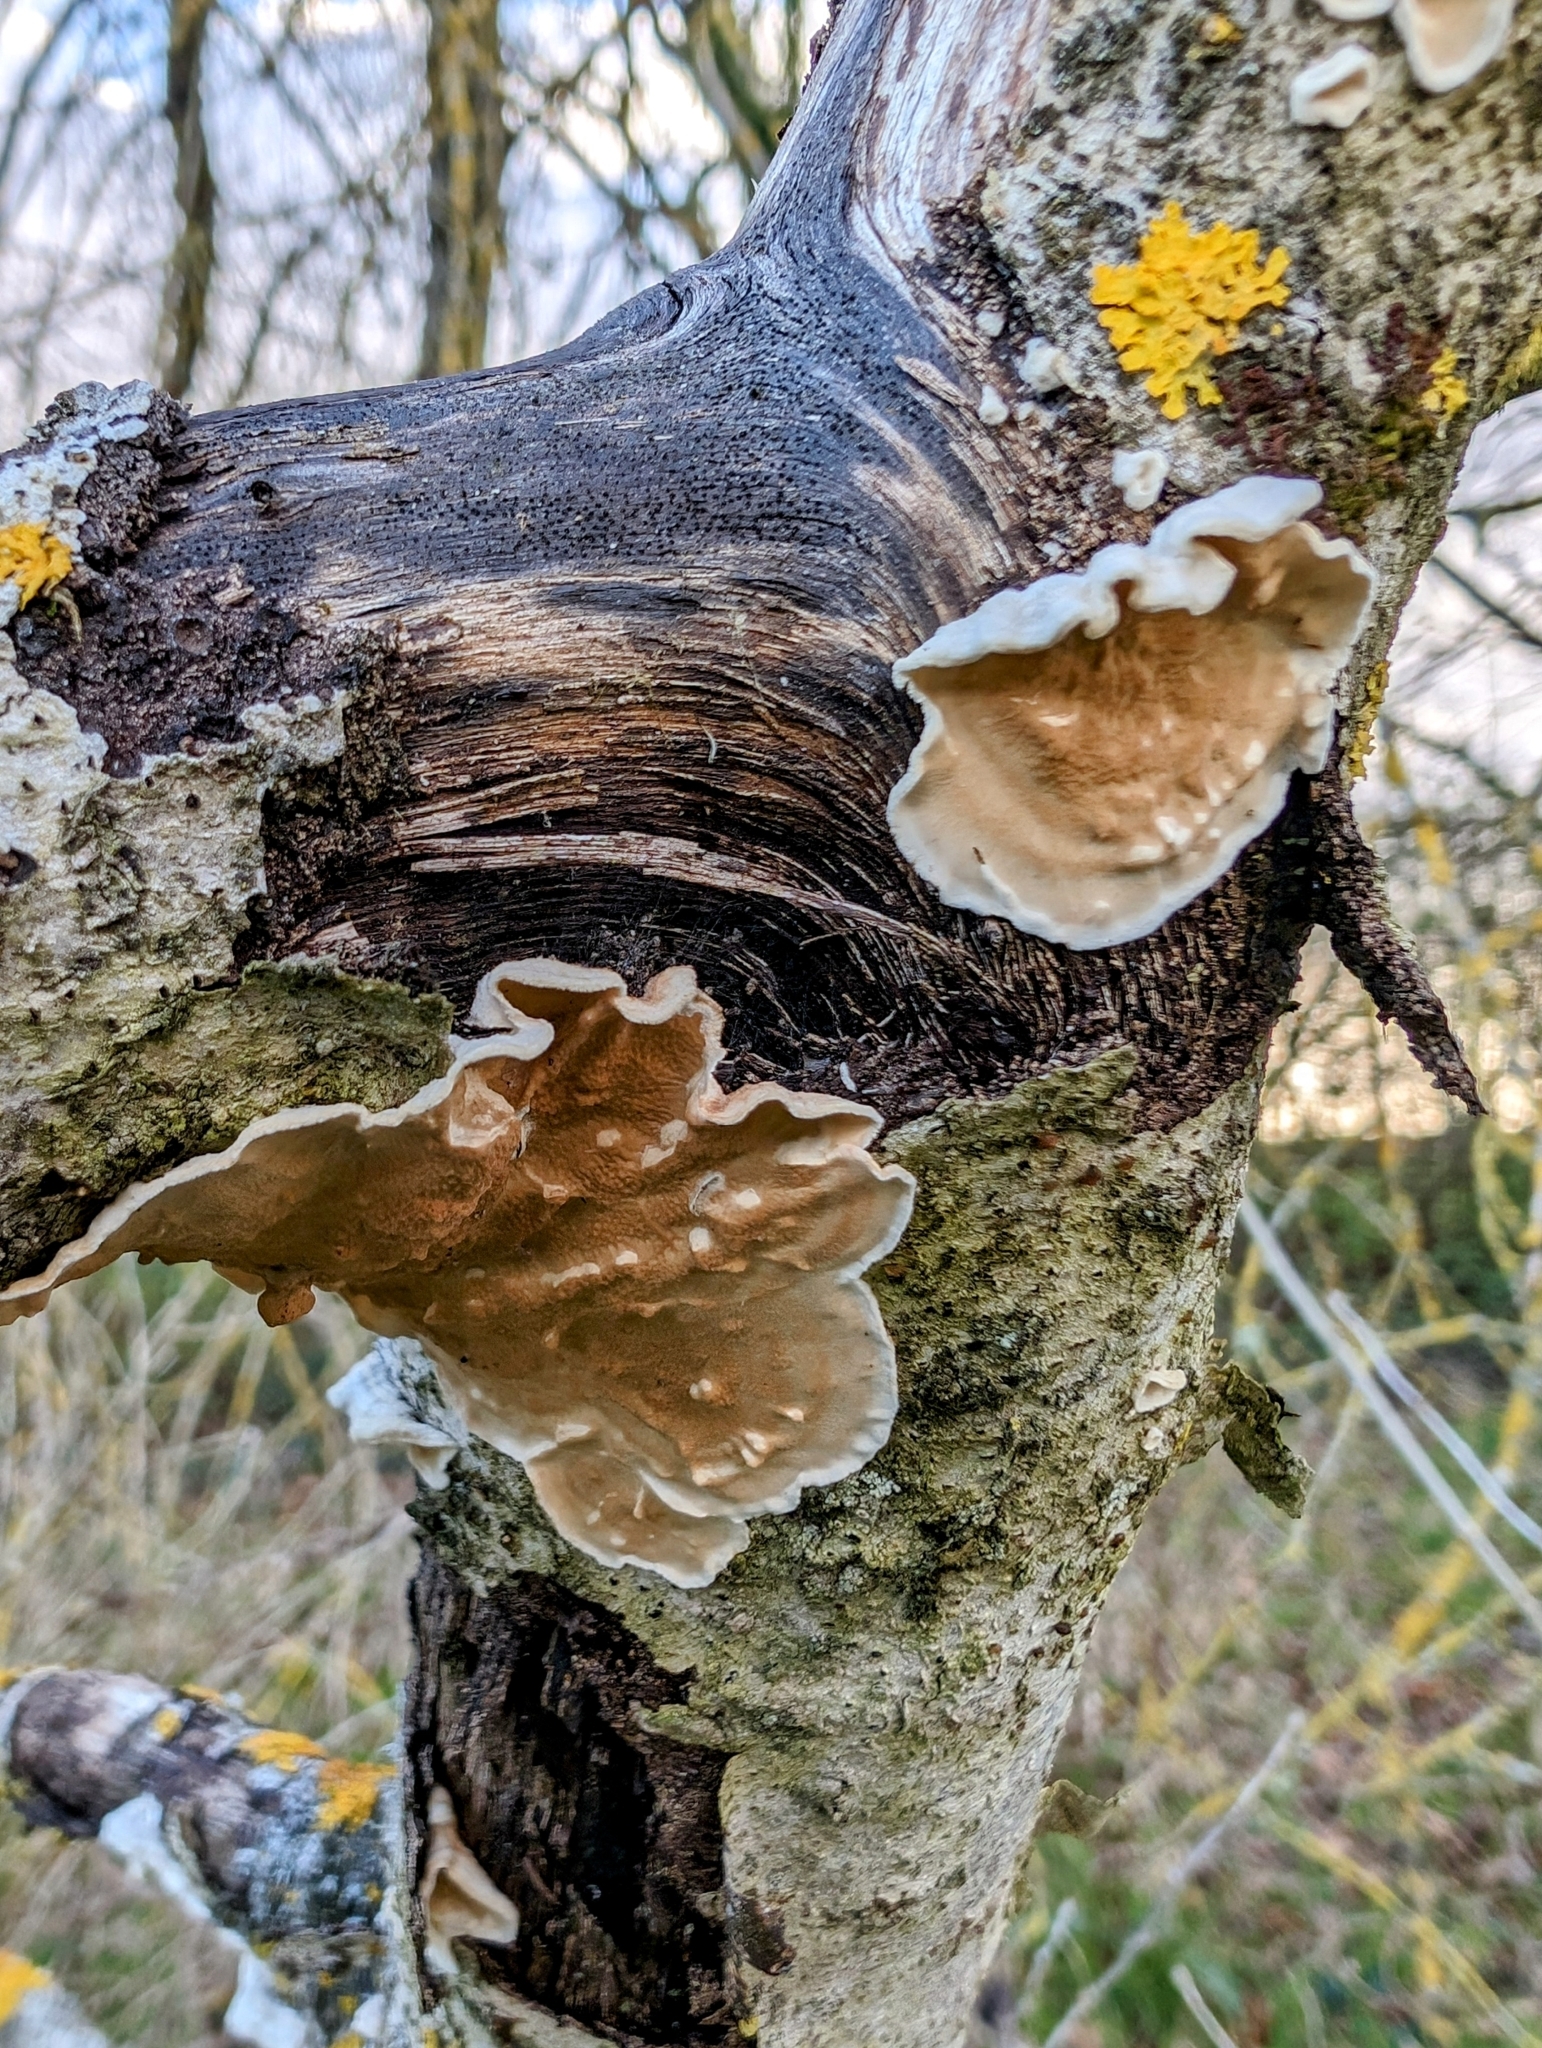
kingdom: Fungi
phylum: Basidiomycota
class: Agaricomycetes
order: Polyporales
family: Irpicaceae
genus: Byssomerulius
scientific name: Byssomerulius corium
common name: Netted crust
